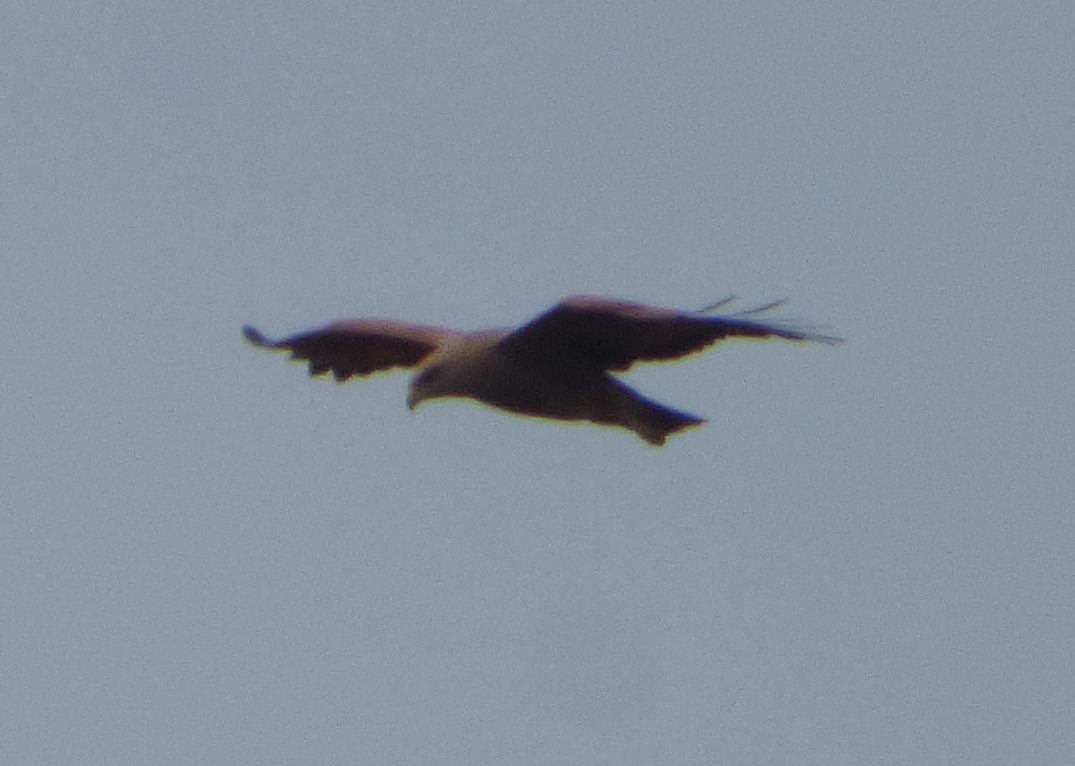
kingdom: Animalia
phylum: Chordata
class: Aves
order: Accipitriformes
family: Accipitridae
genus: Buteogallus
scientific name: Buteogallus meridionalis
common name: Savanna hawk
